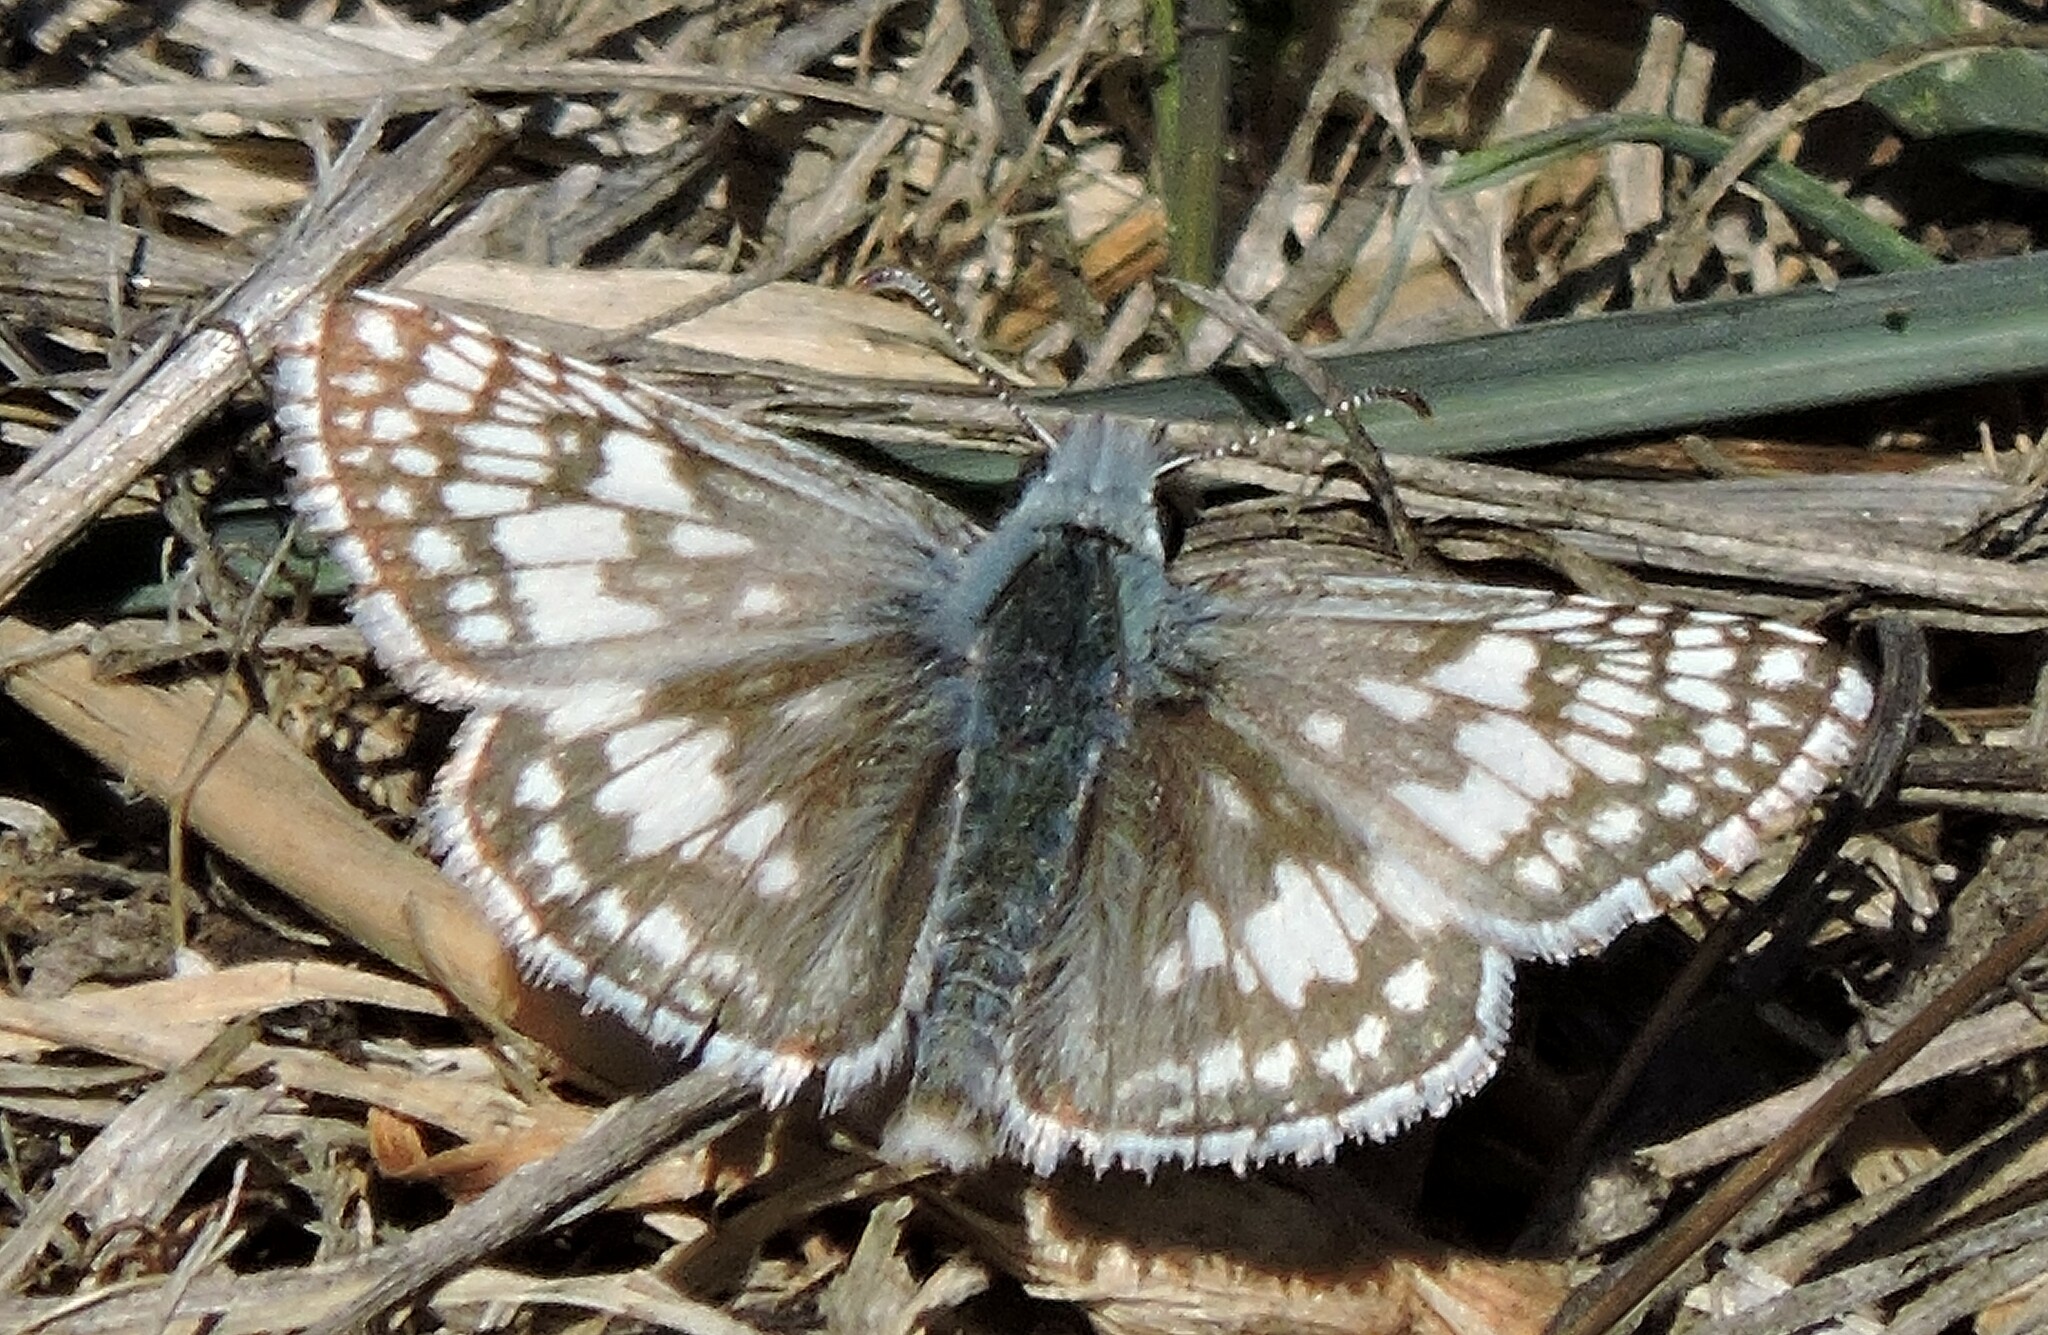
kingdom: Animalia
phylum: Arthropoda
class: Insecta
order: Lepidoptera
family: Hesperiidae
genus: Burnsius
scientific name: Burnsius communis
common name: Common checkered-skipper
